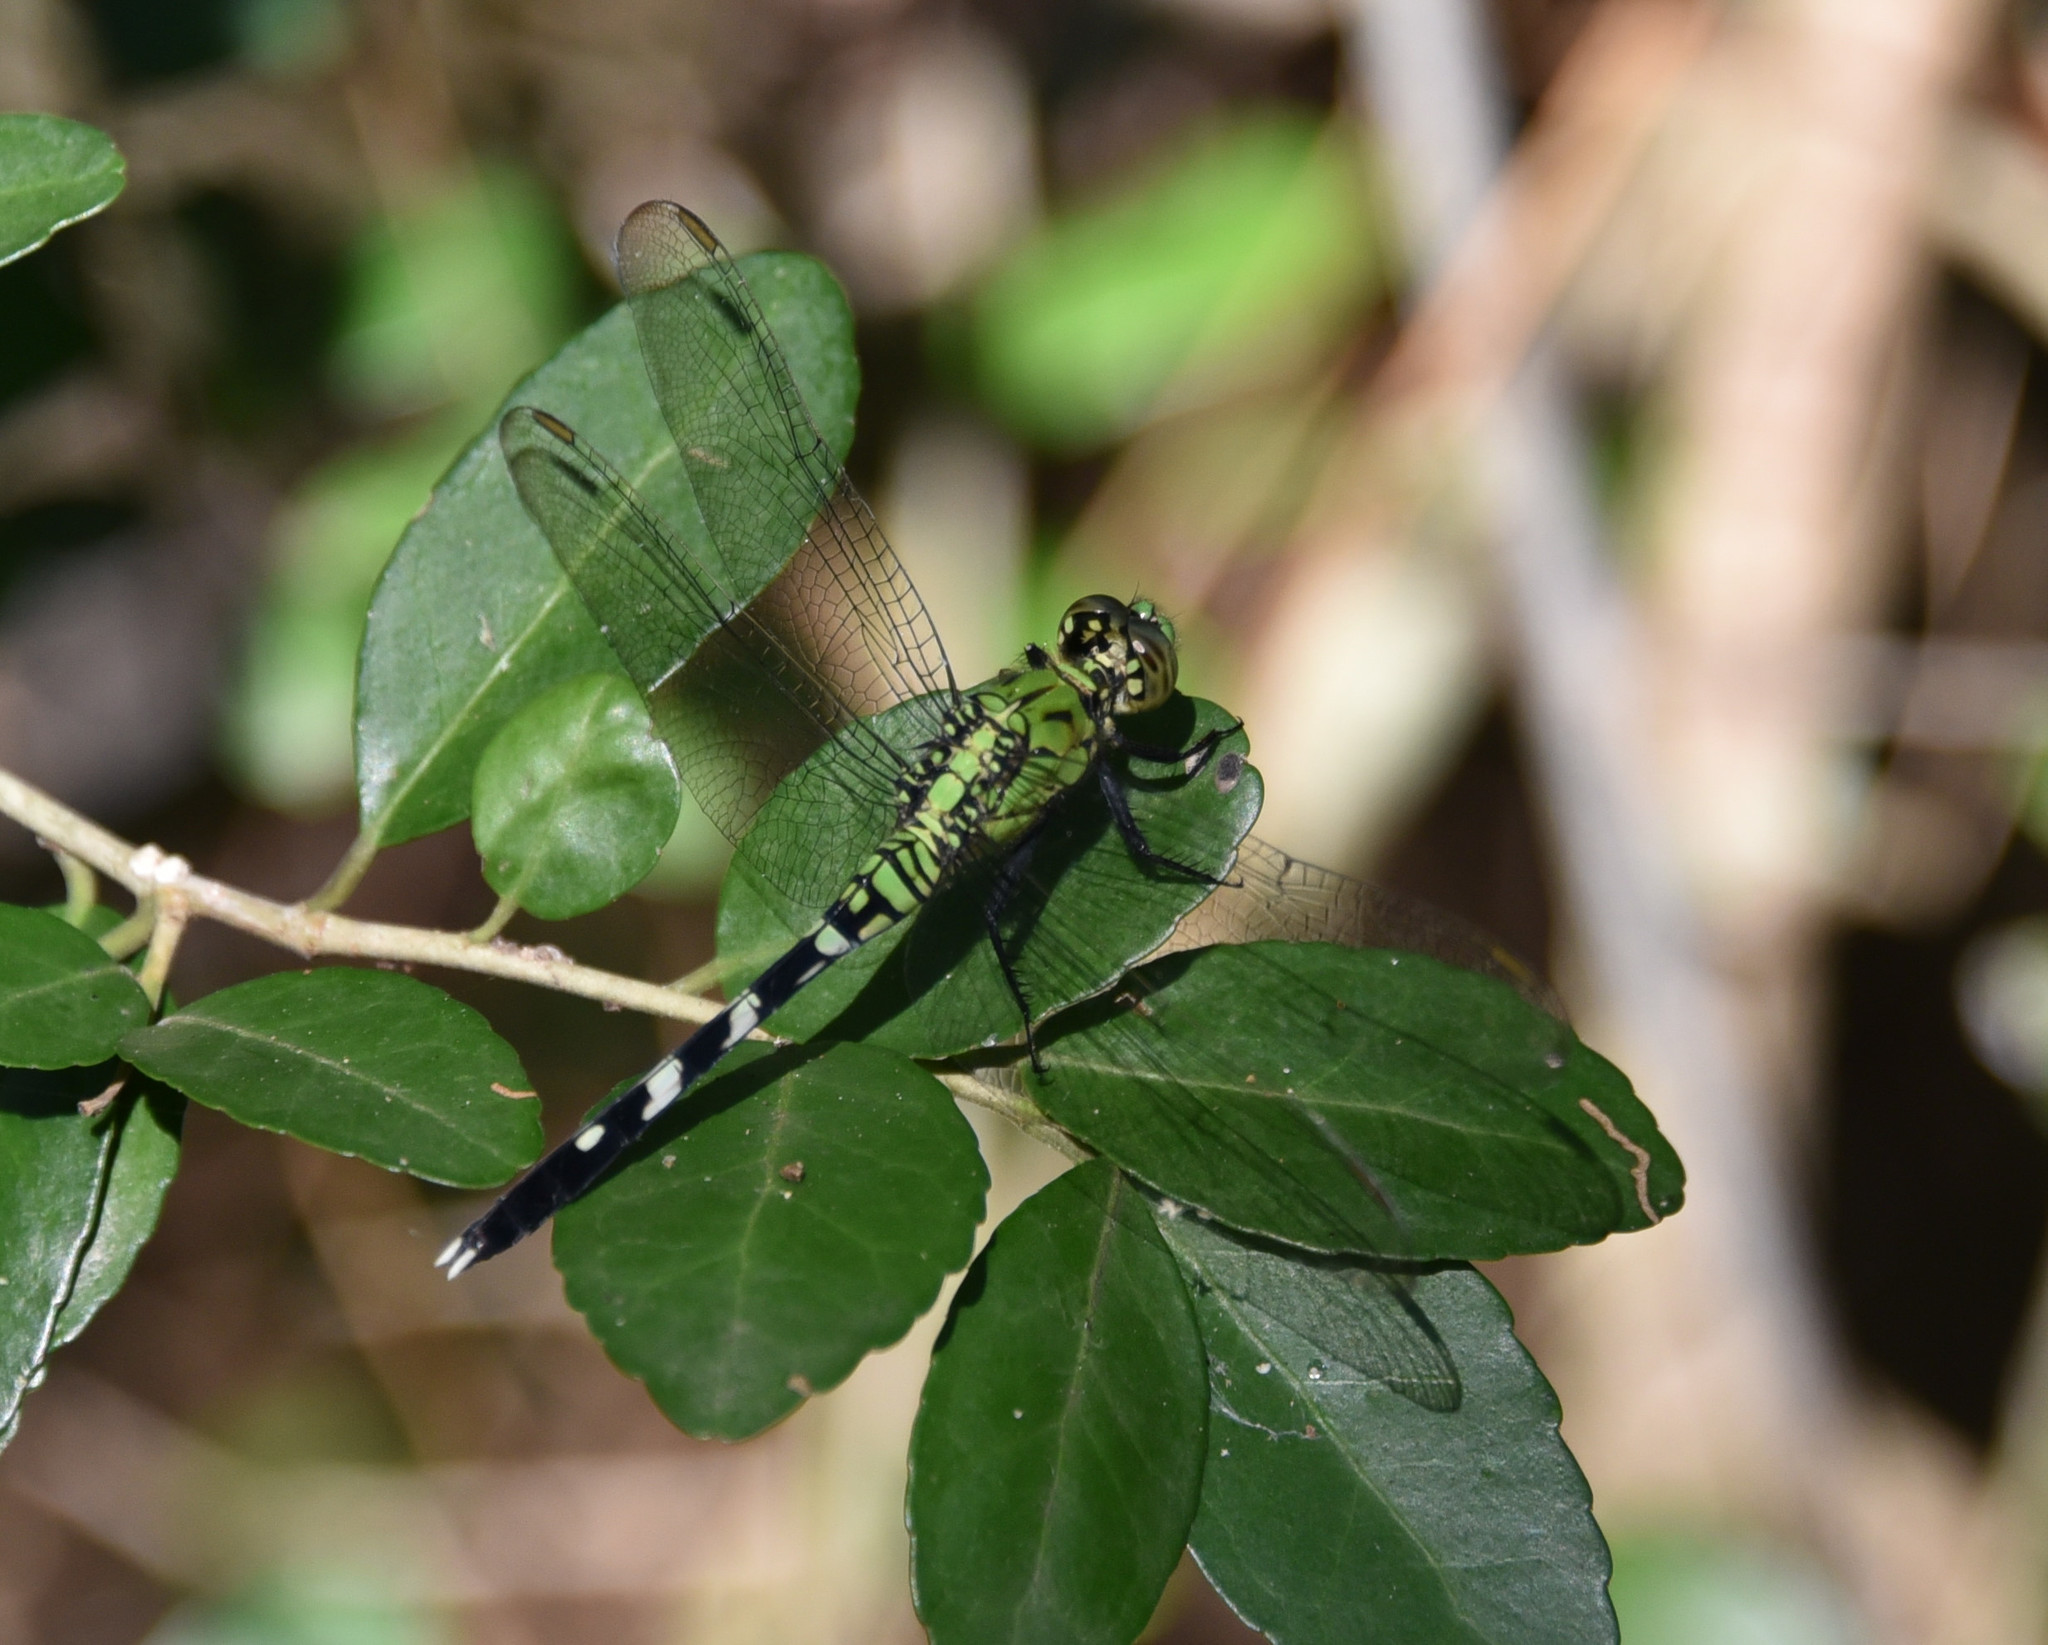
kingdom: Animalia
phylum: Arthropoda
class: Insecta
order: Odonata
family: Libellulidae
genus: Erythemis
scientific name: Erythemis simplicicollis
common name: Eastern pondhawk
